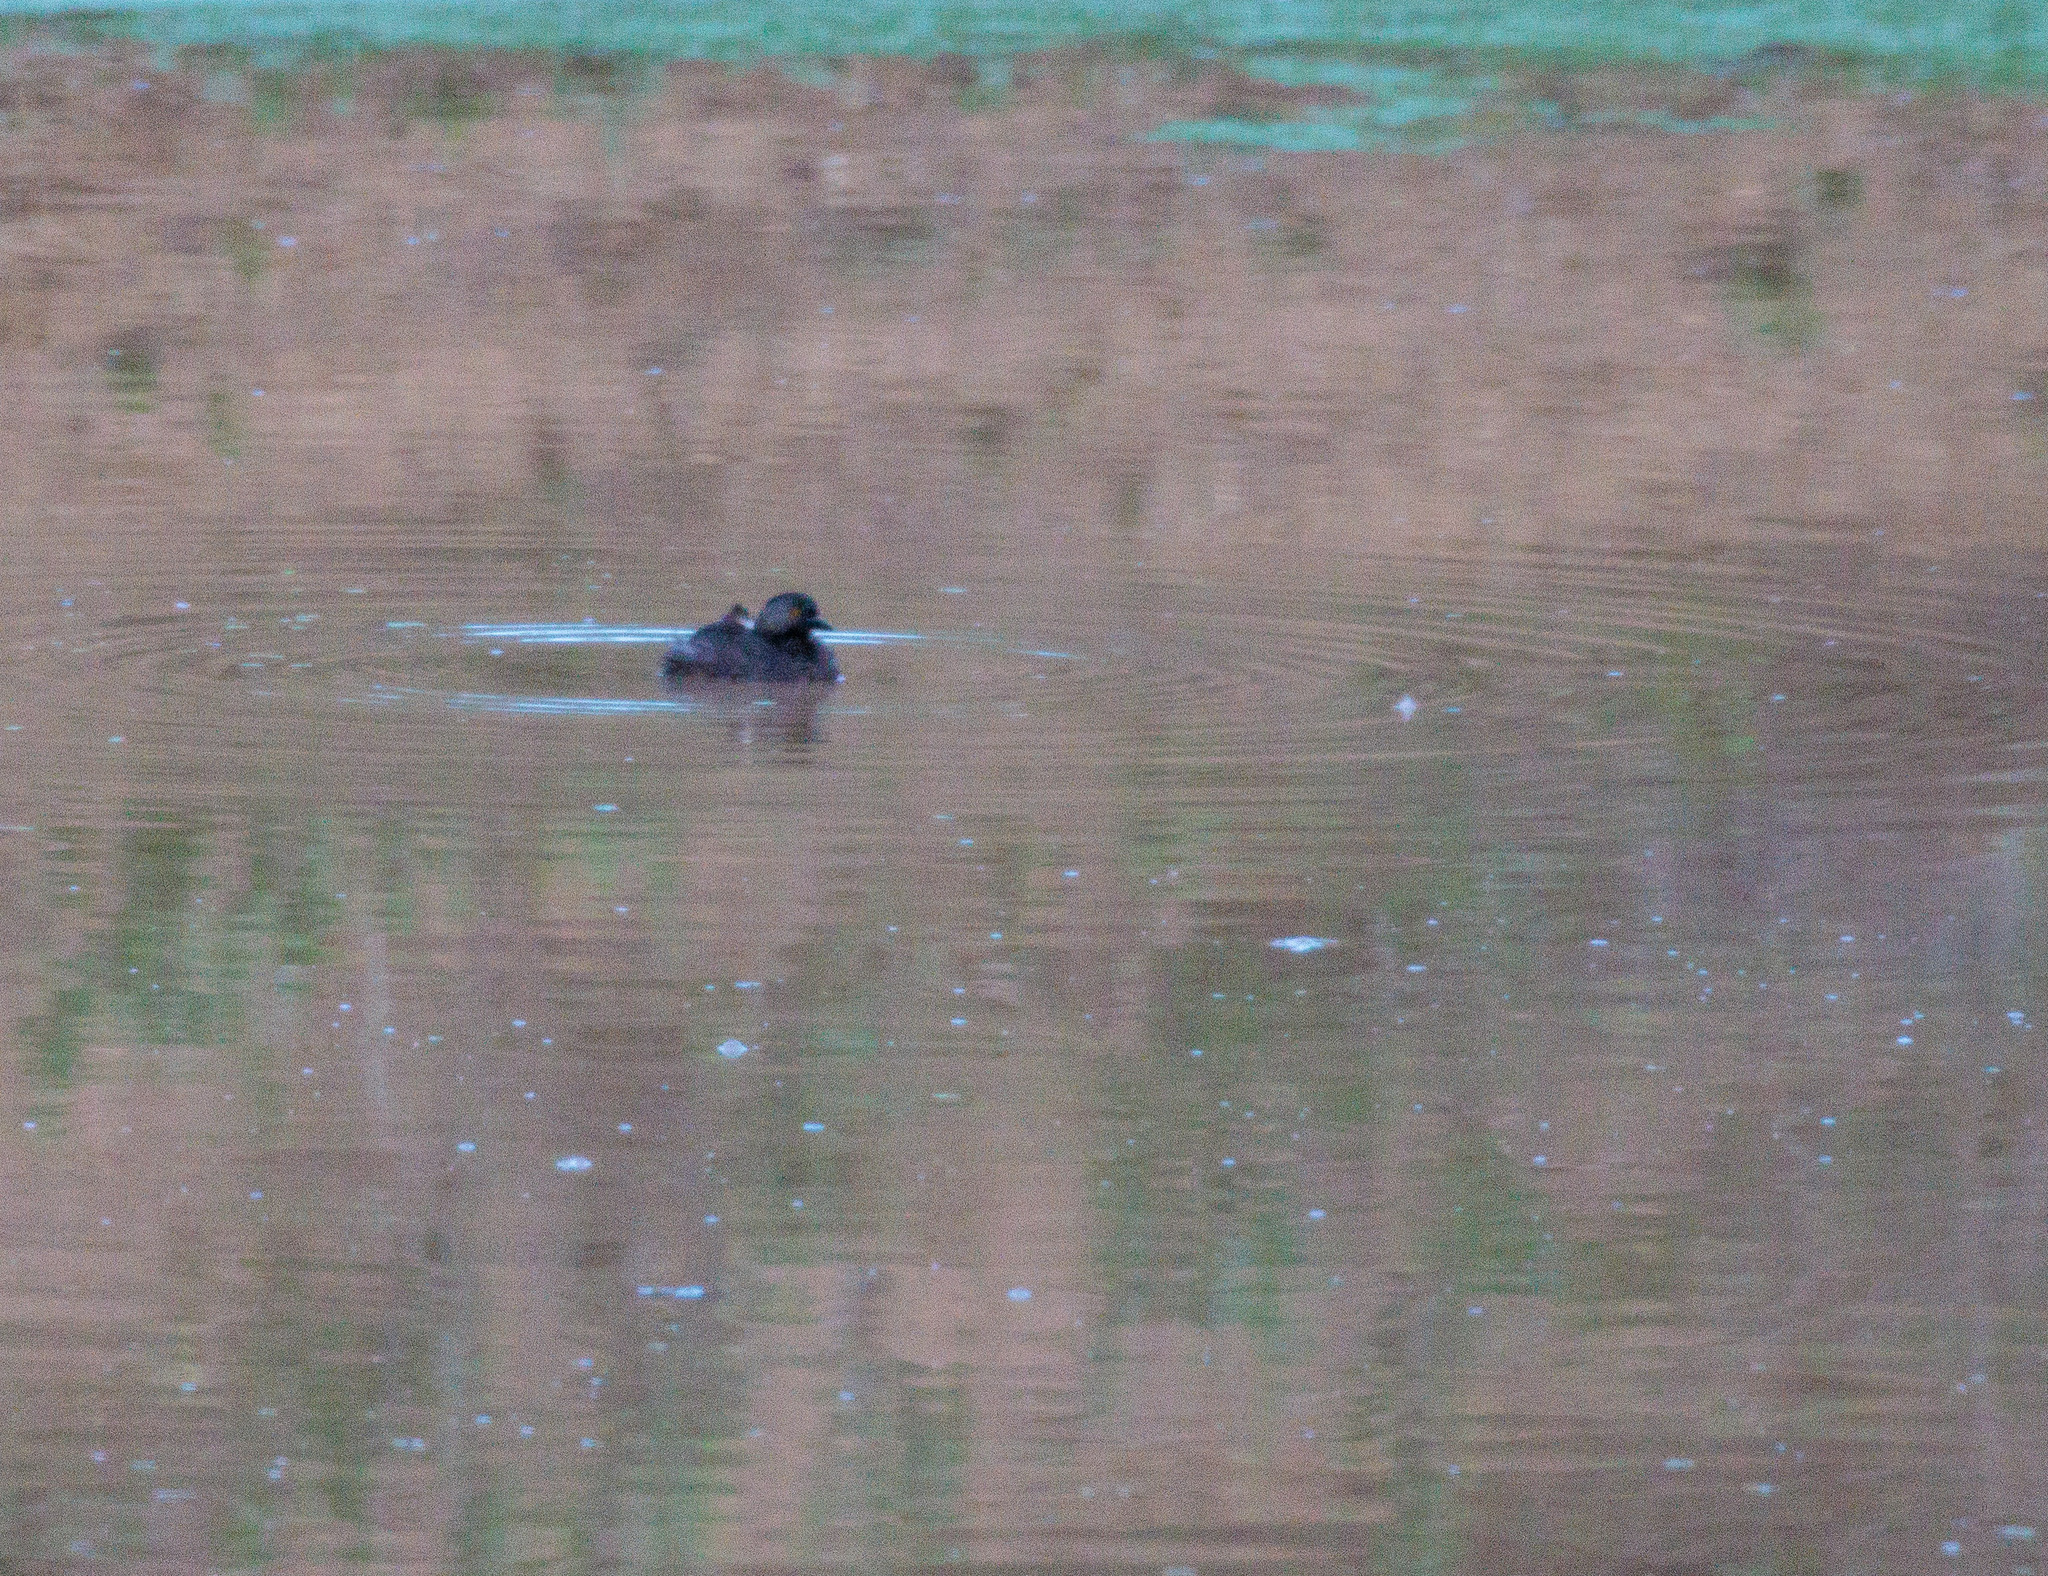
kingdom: Animalia
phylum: Chordata
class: Aves
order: Podicipediformes
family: Podicipedidae
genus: Tachybaptus
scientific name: Tachybaptus dominicus
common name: Least grebe
